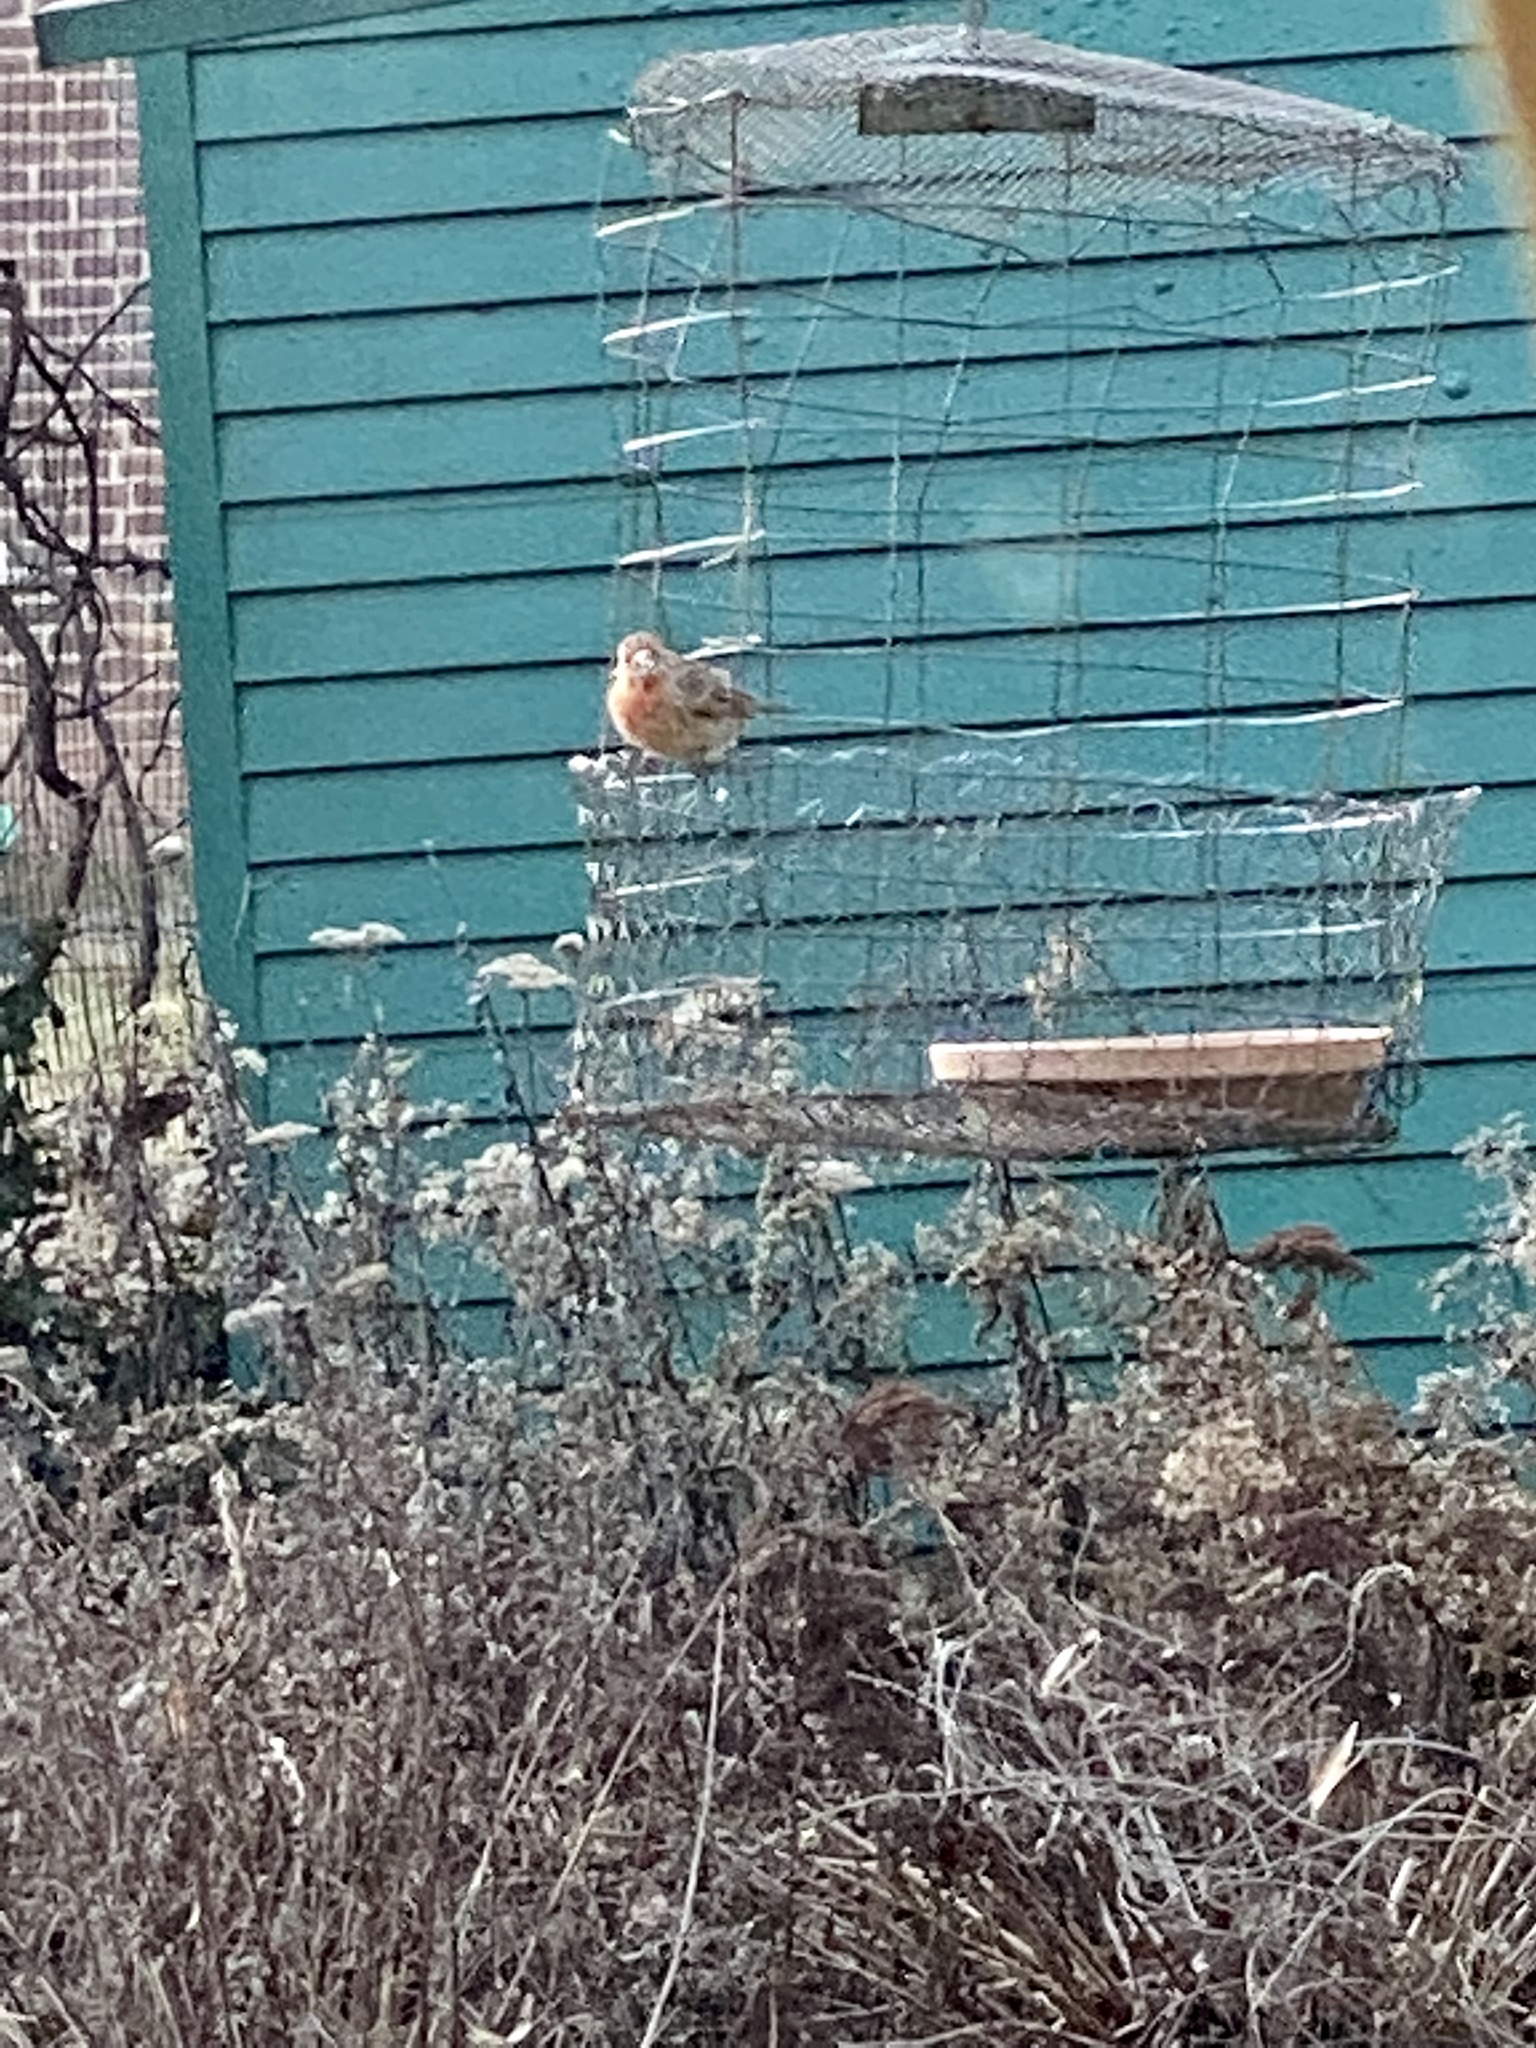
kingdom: Animalia
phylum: Chordata
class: Aves
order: Passeriformes
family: Fringillidae
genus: Haemorhous
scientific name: Haemorhous mexicanus
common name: House finch
